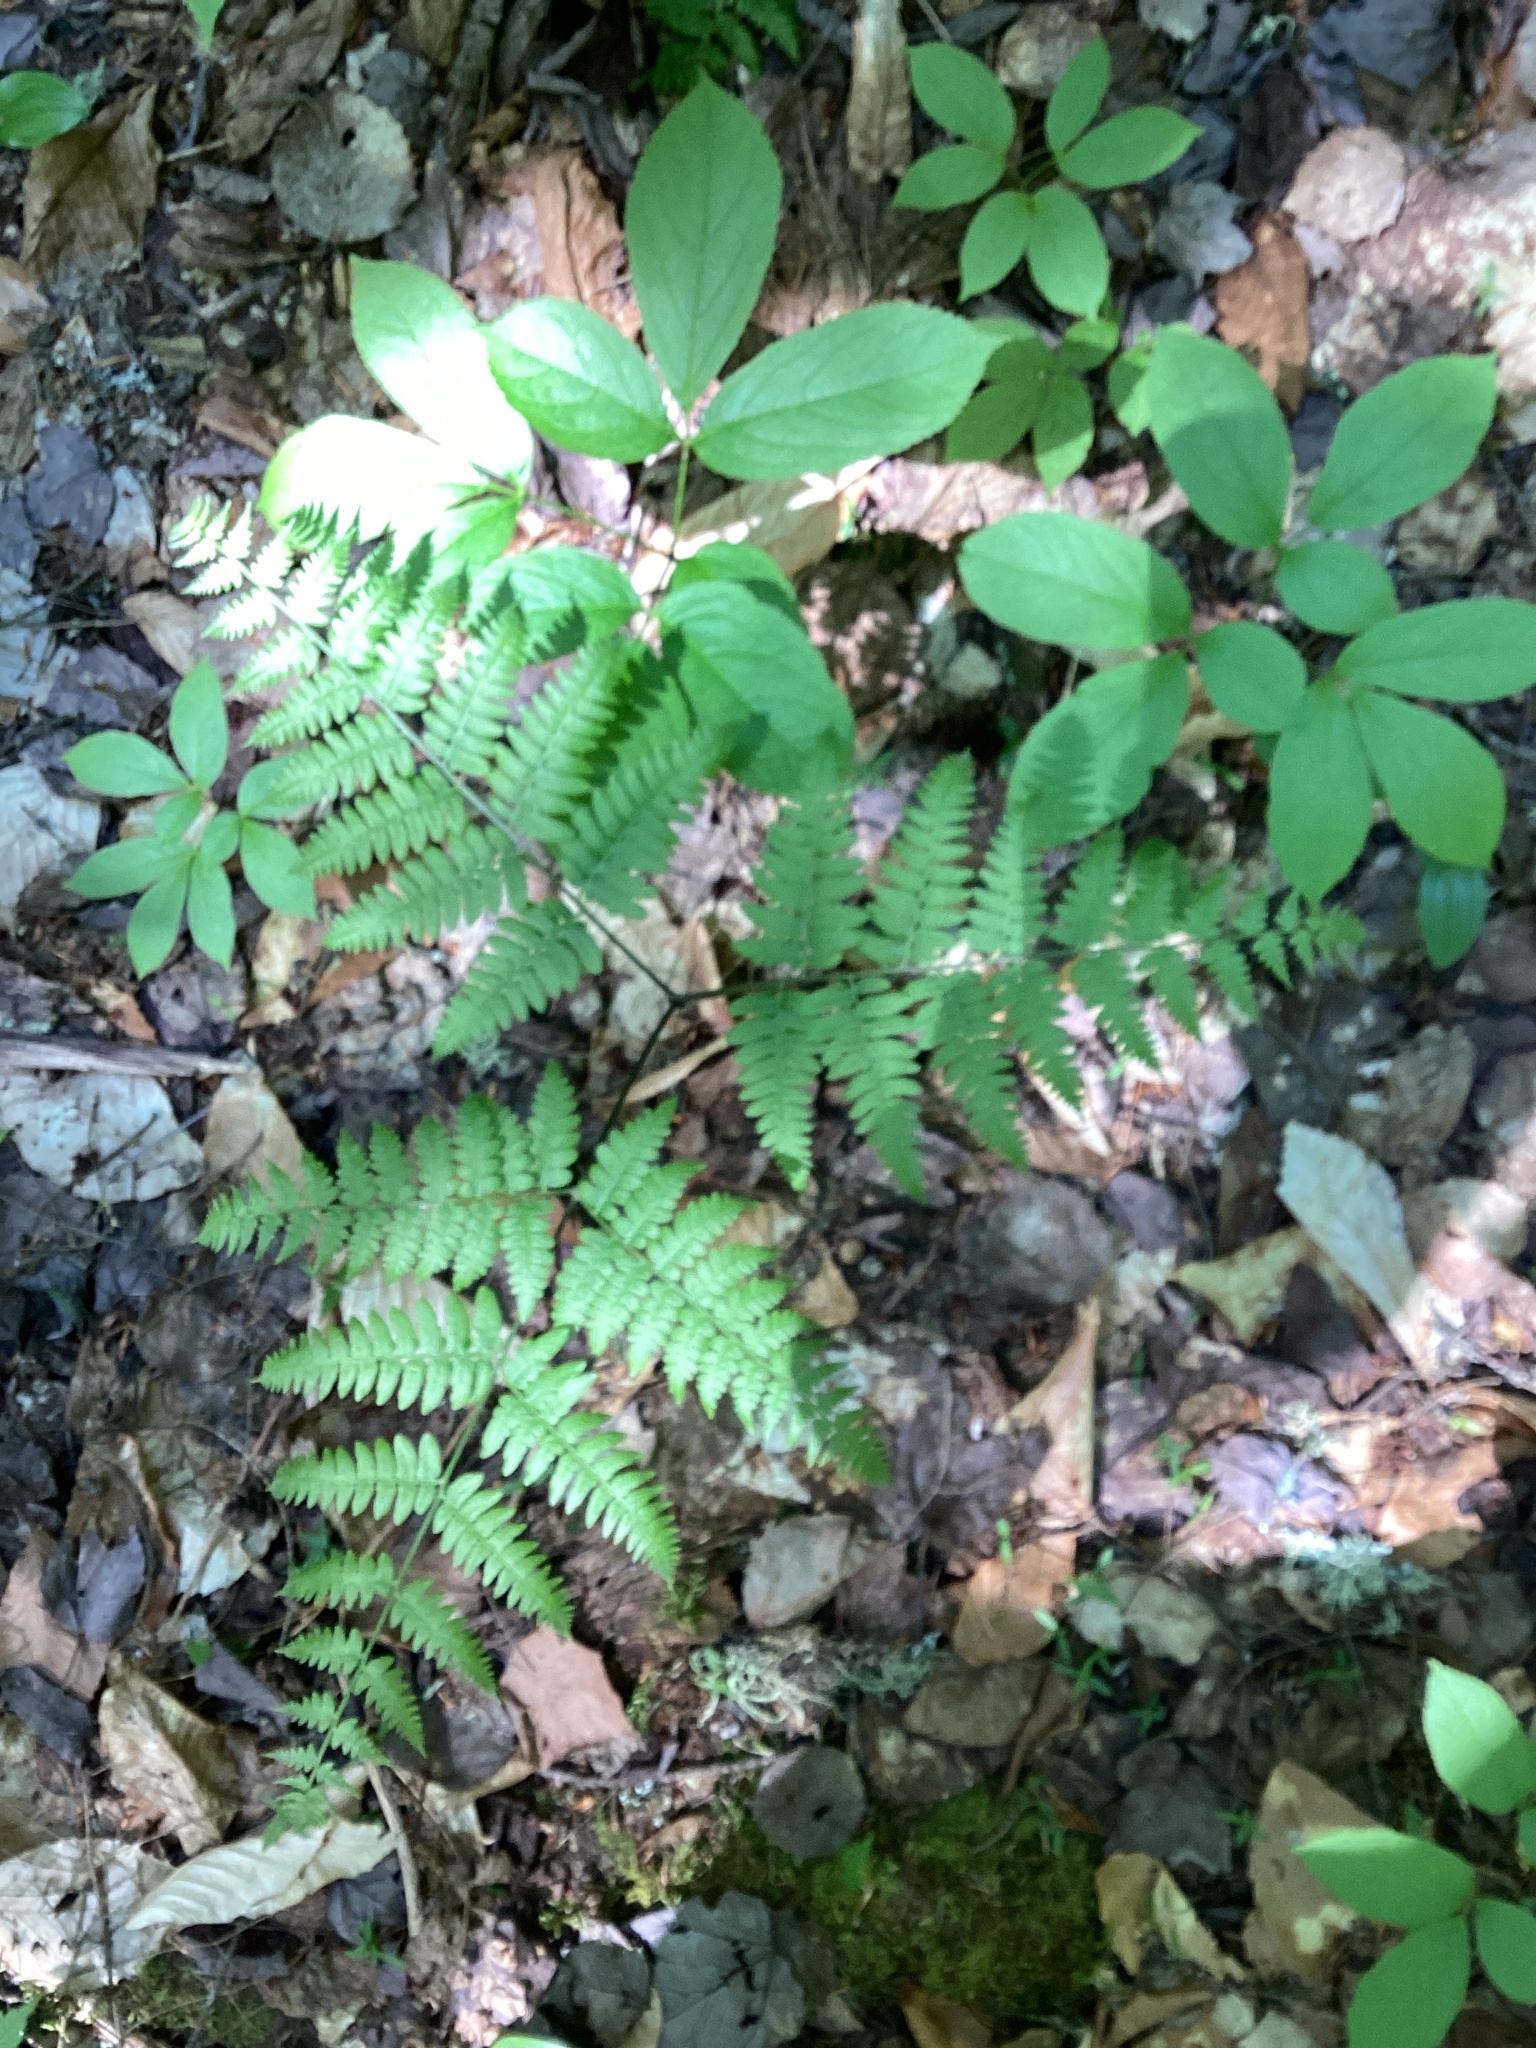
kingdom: Plantae
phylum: Tracheophyta
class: Polypodiopsida
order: Polypodiales
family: Dennstaedtiaceae
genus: Pteridium
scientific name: Pteridium aquilinum
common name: Bracken
